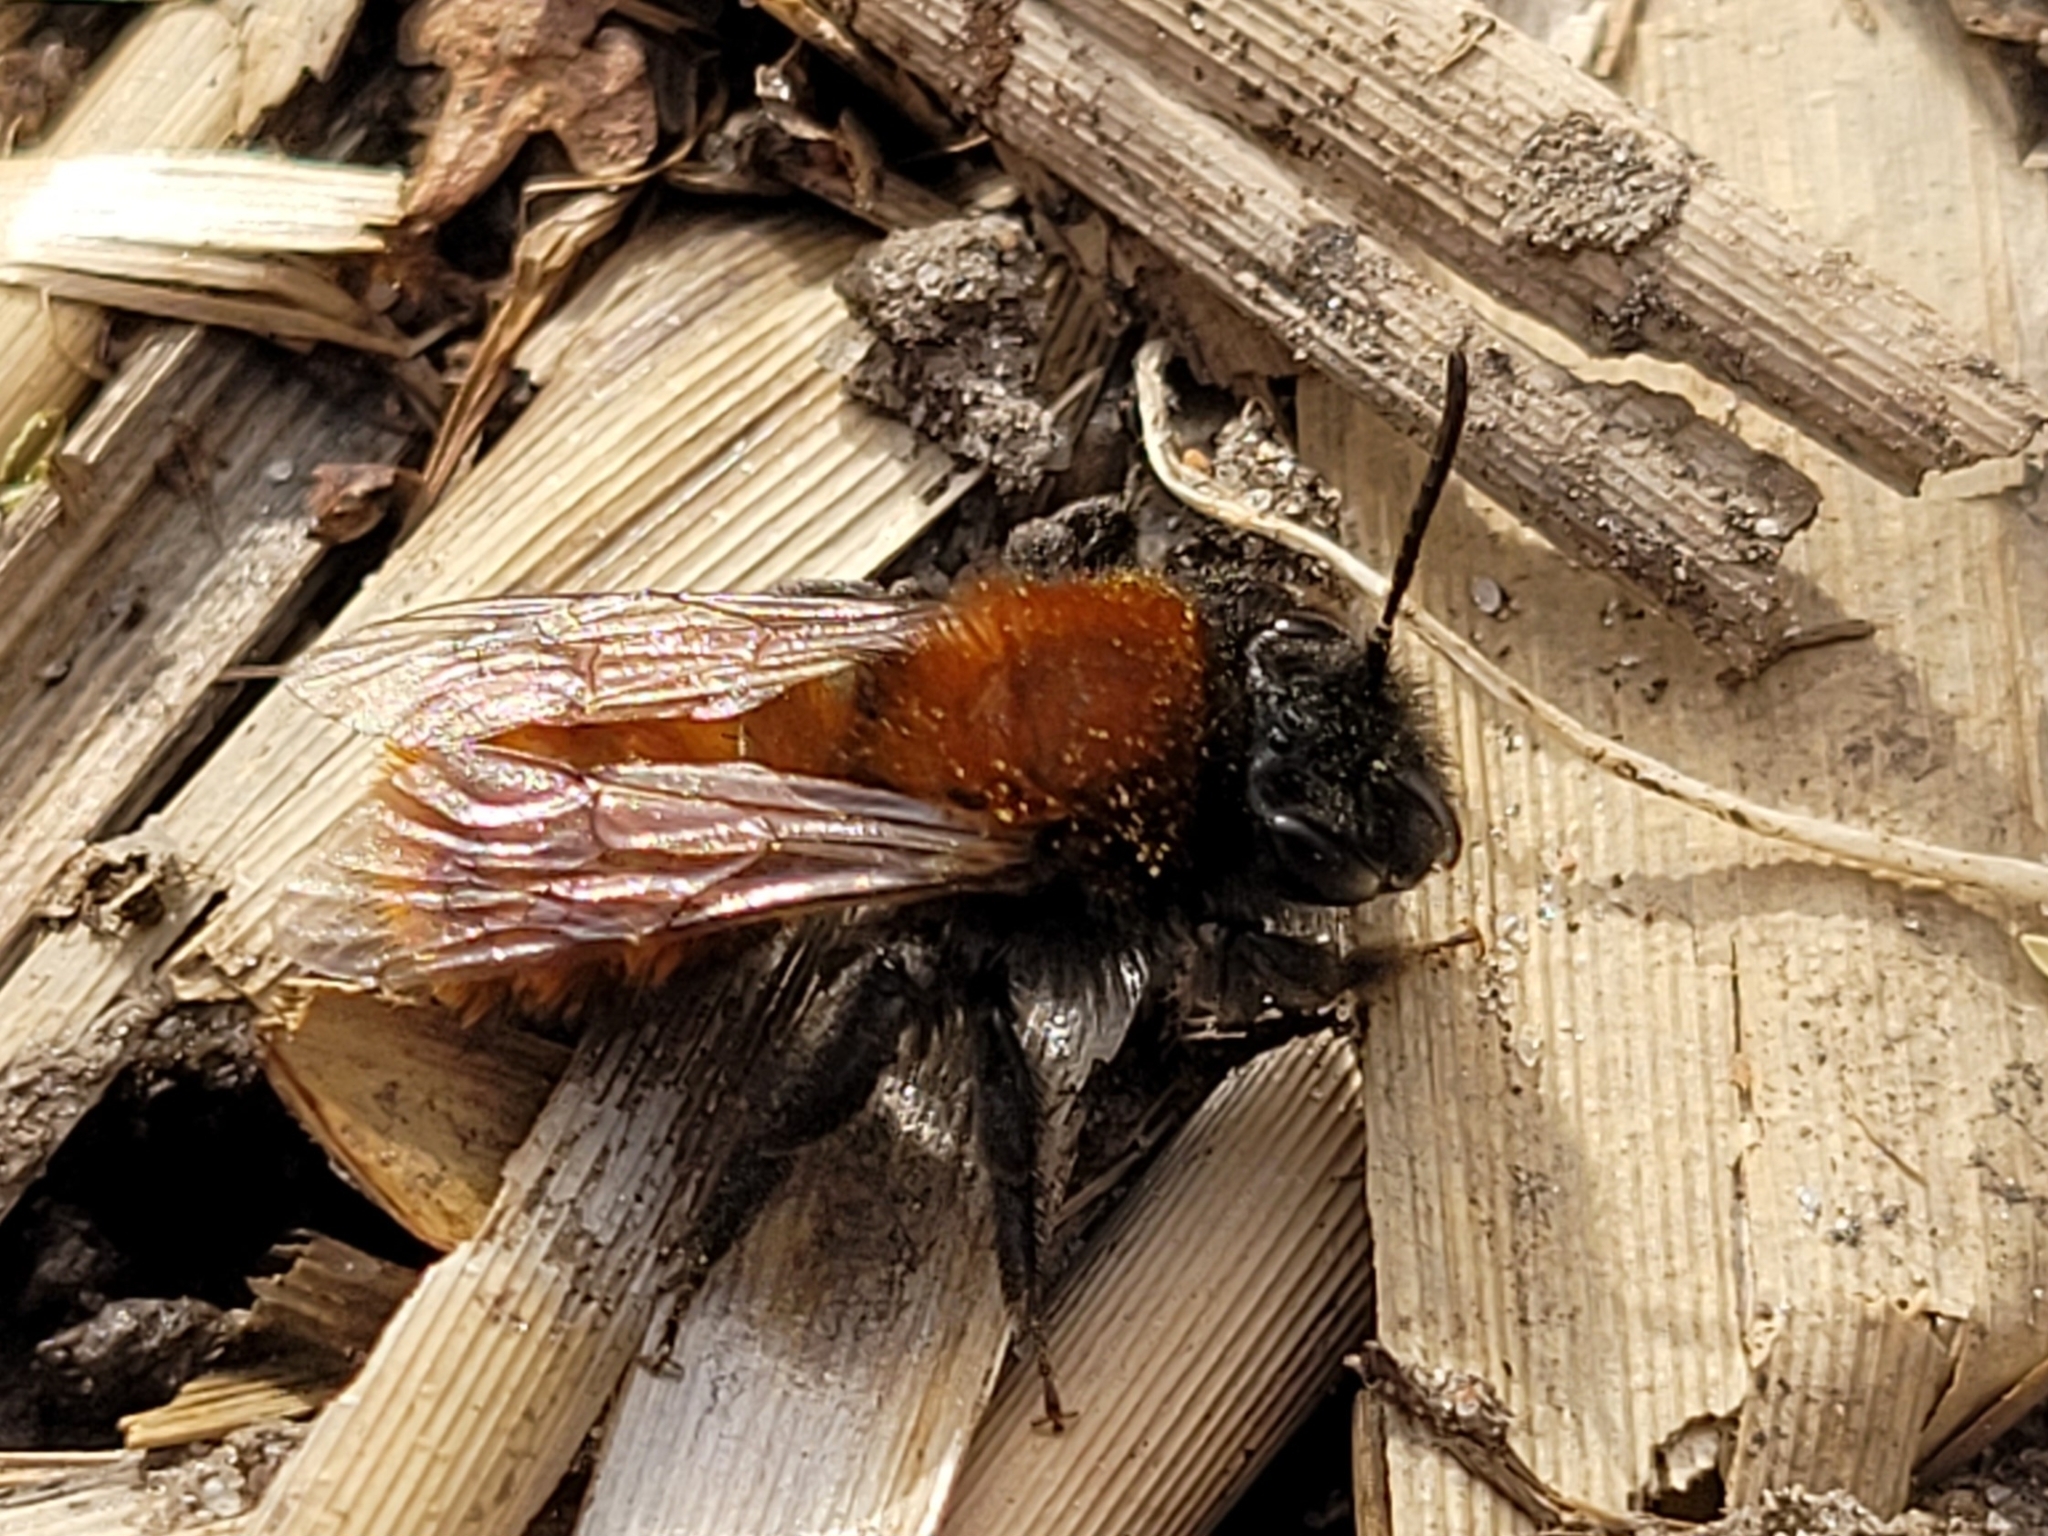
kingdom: Animalia
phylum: Arthropoda
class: Insecta
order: Hymenoptera
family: Andrenidae
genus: Andrena
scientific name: Andrena fulva
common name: Tawny mining bee
